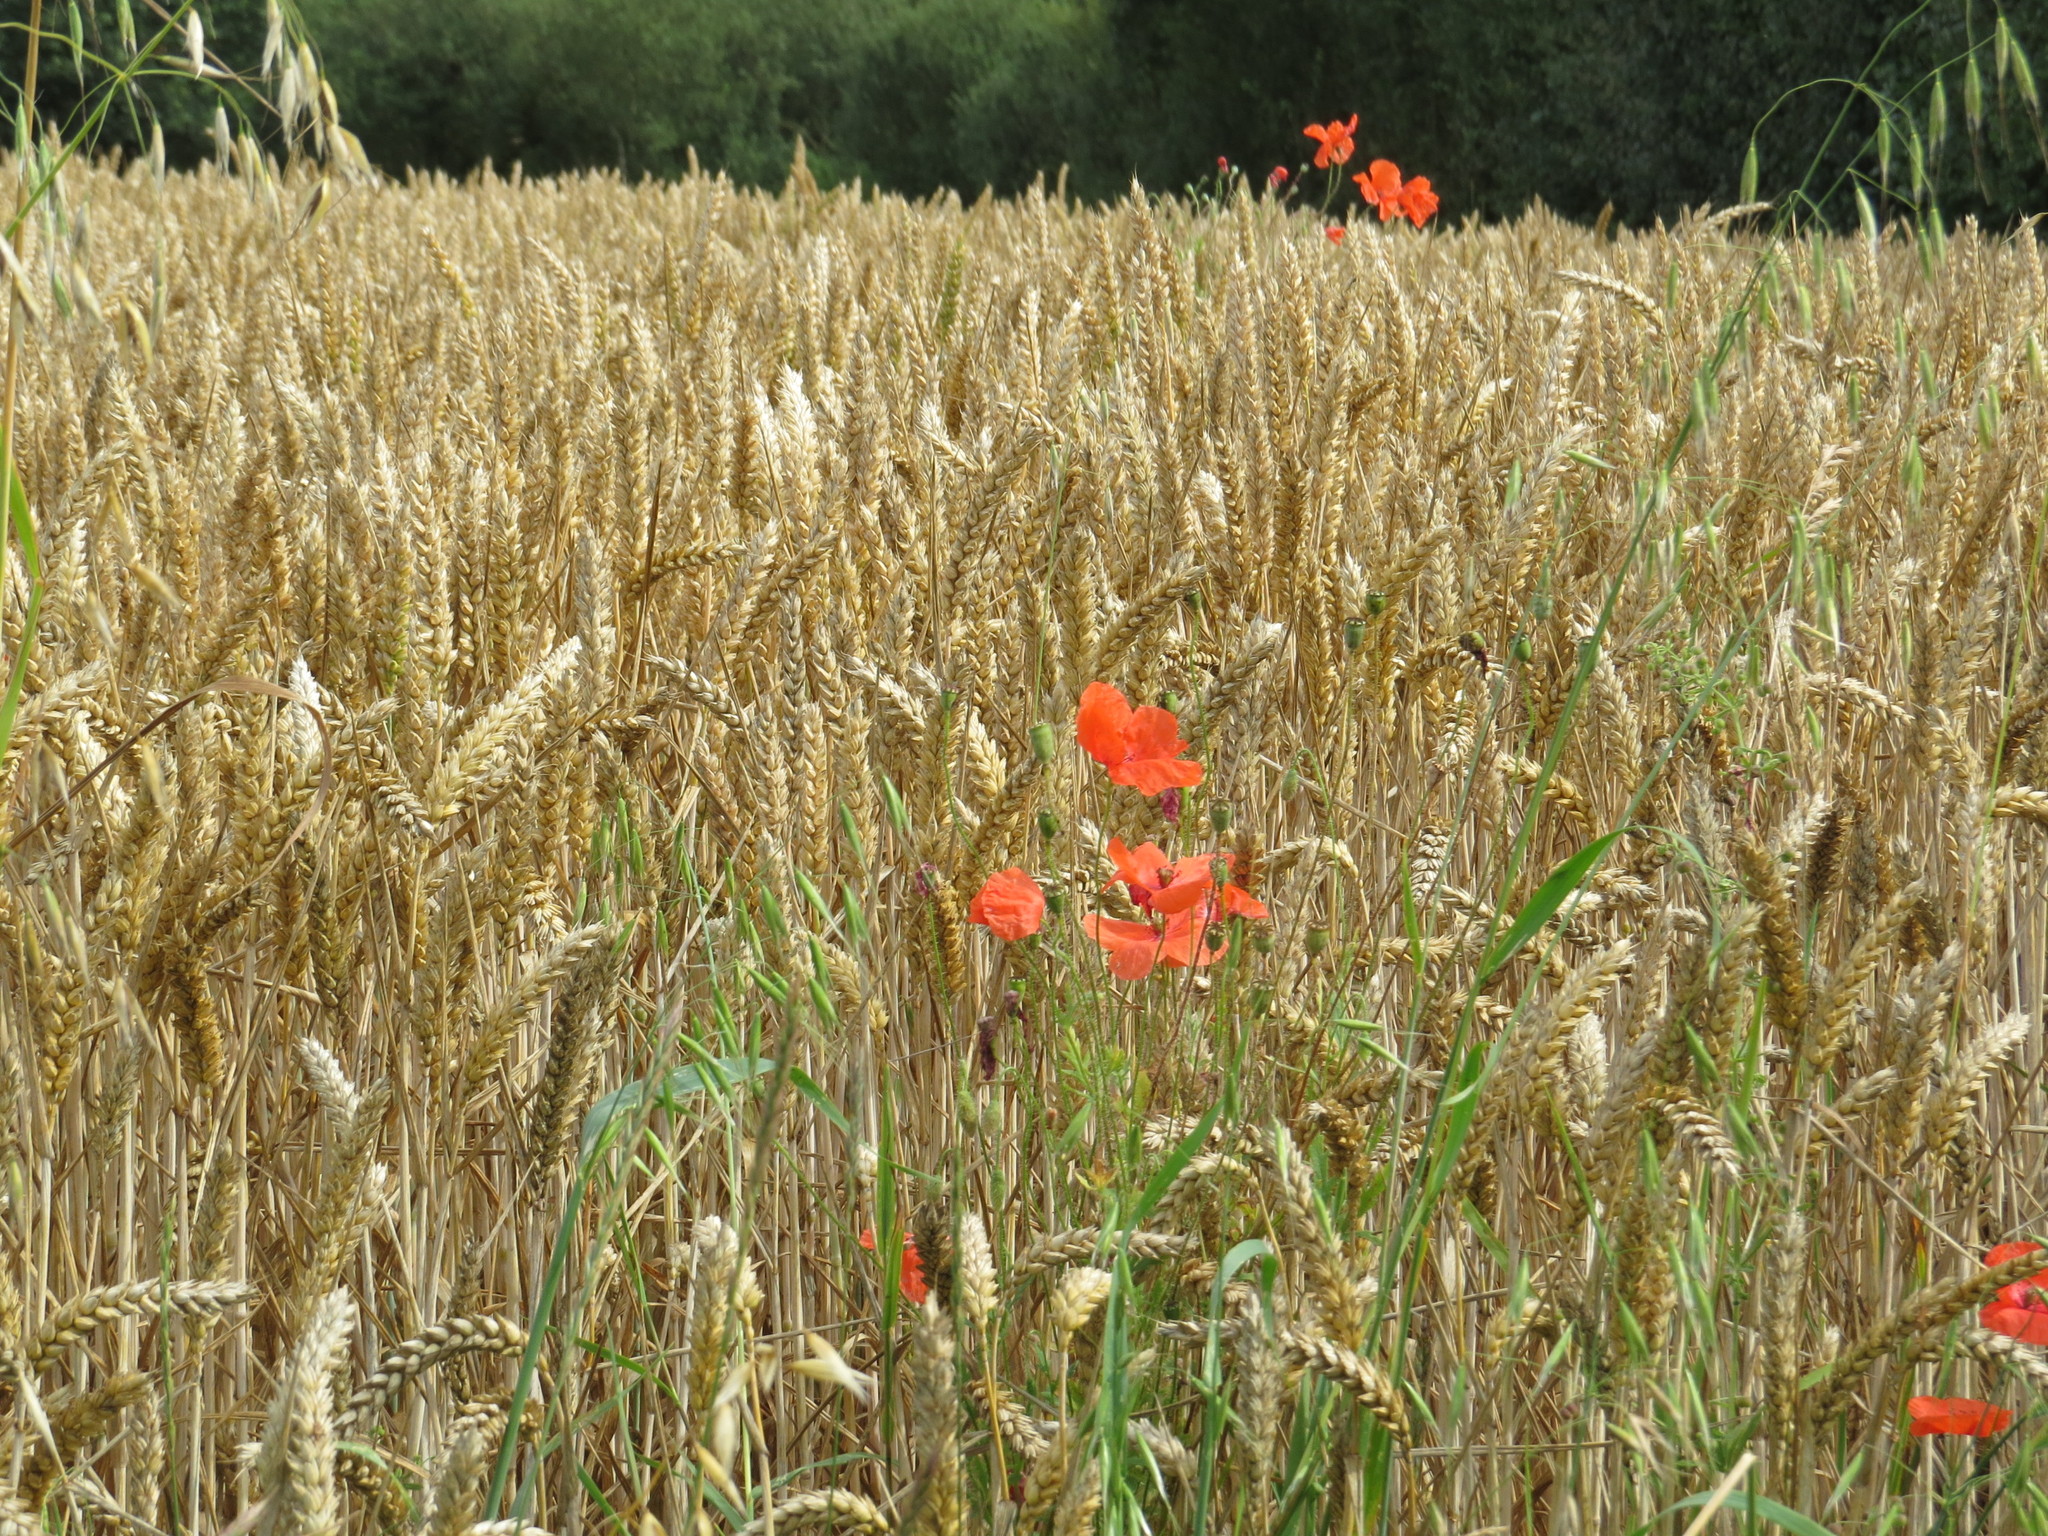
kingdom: Plantae
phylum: Tracheophyta
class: Magnoliopsida
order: Ranunculales
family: Papaveraceae
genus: Papaver
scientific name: Papaver rhoeas
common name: Corn poppy
